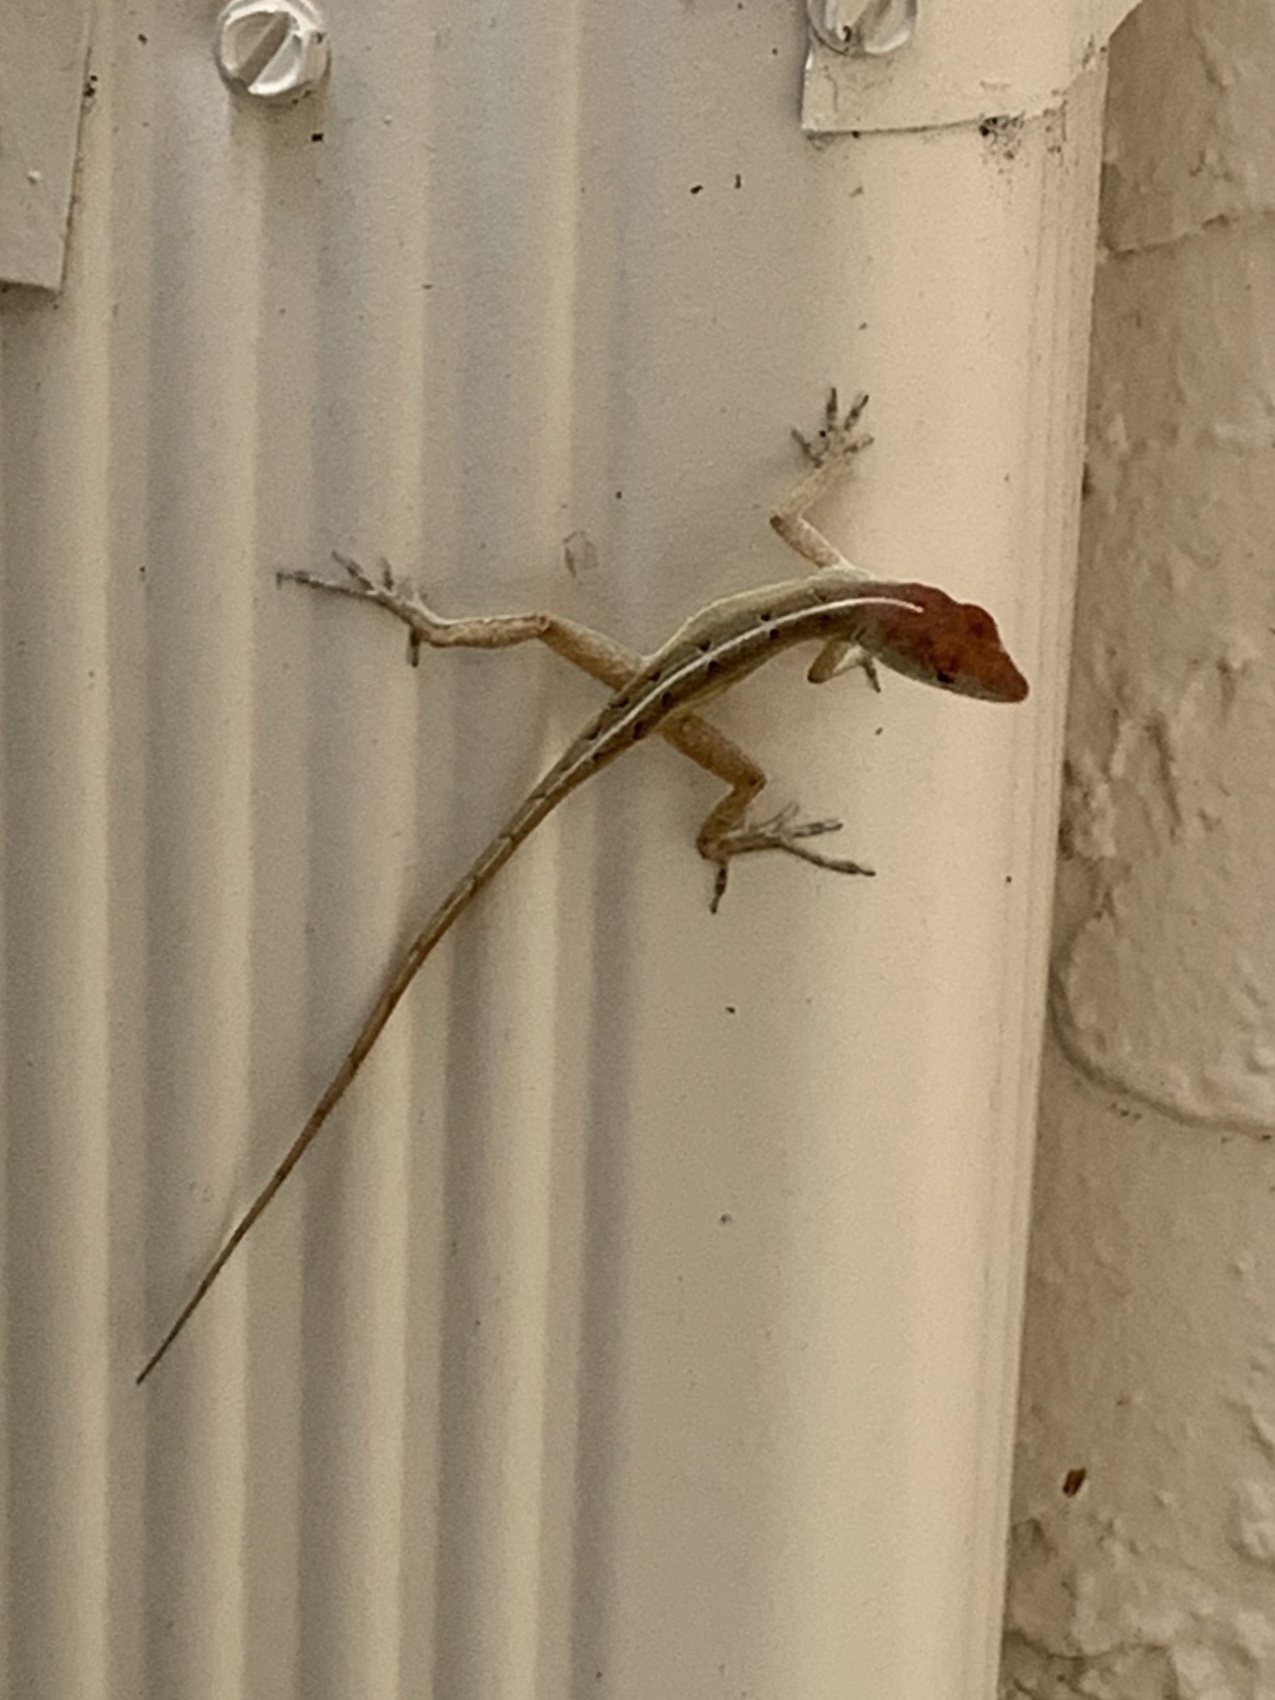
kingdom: Animalia
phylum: Chordata
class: Squamata
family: Dactyloidae
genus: Anolis
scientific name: Anolis sagrei
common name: Brown anole
